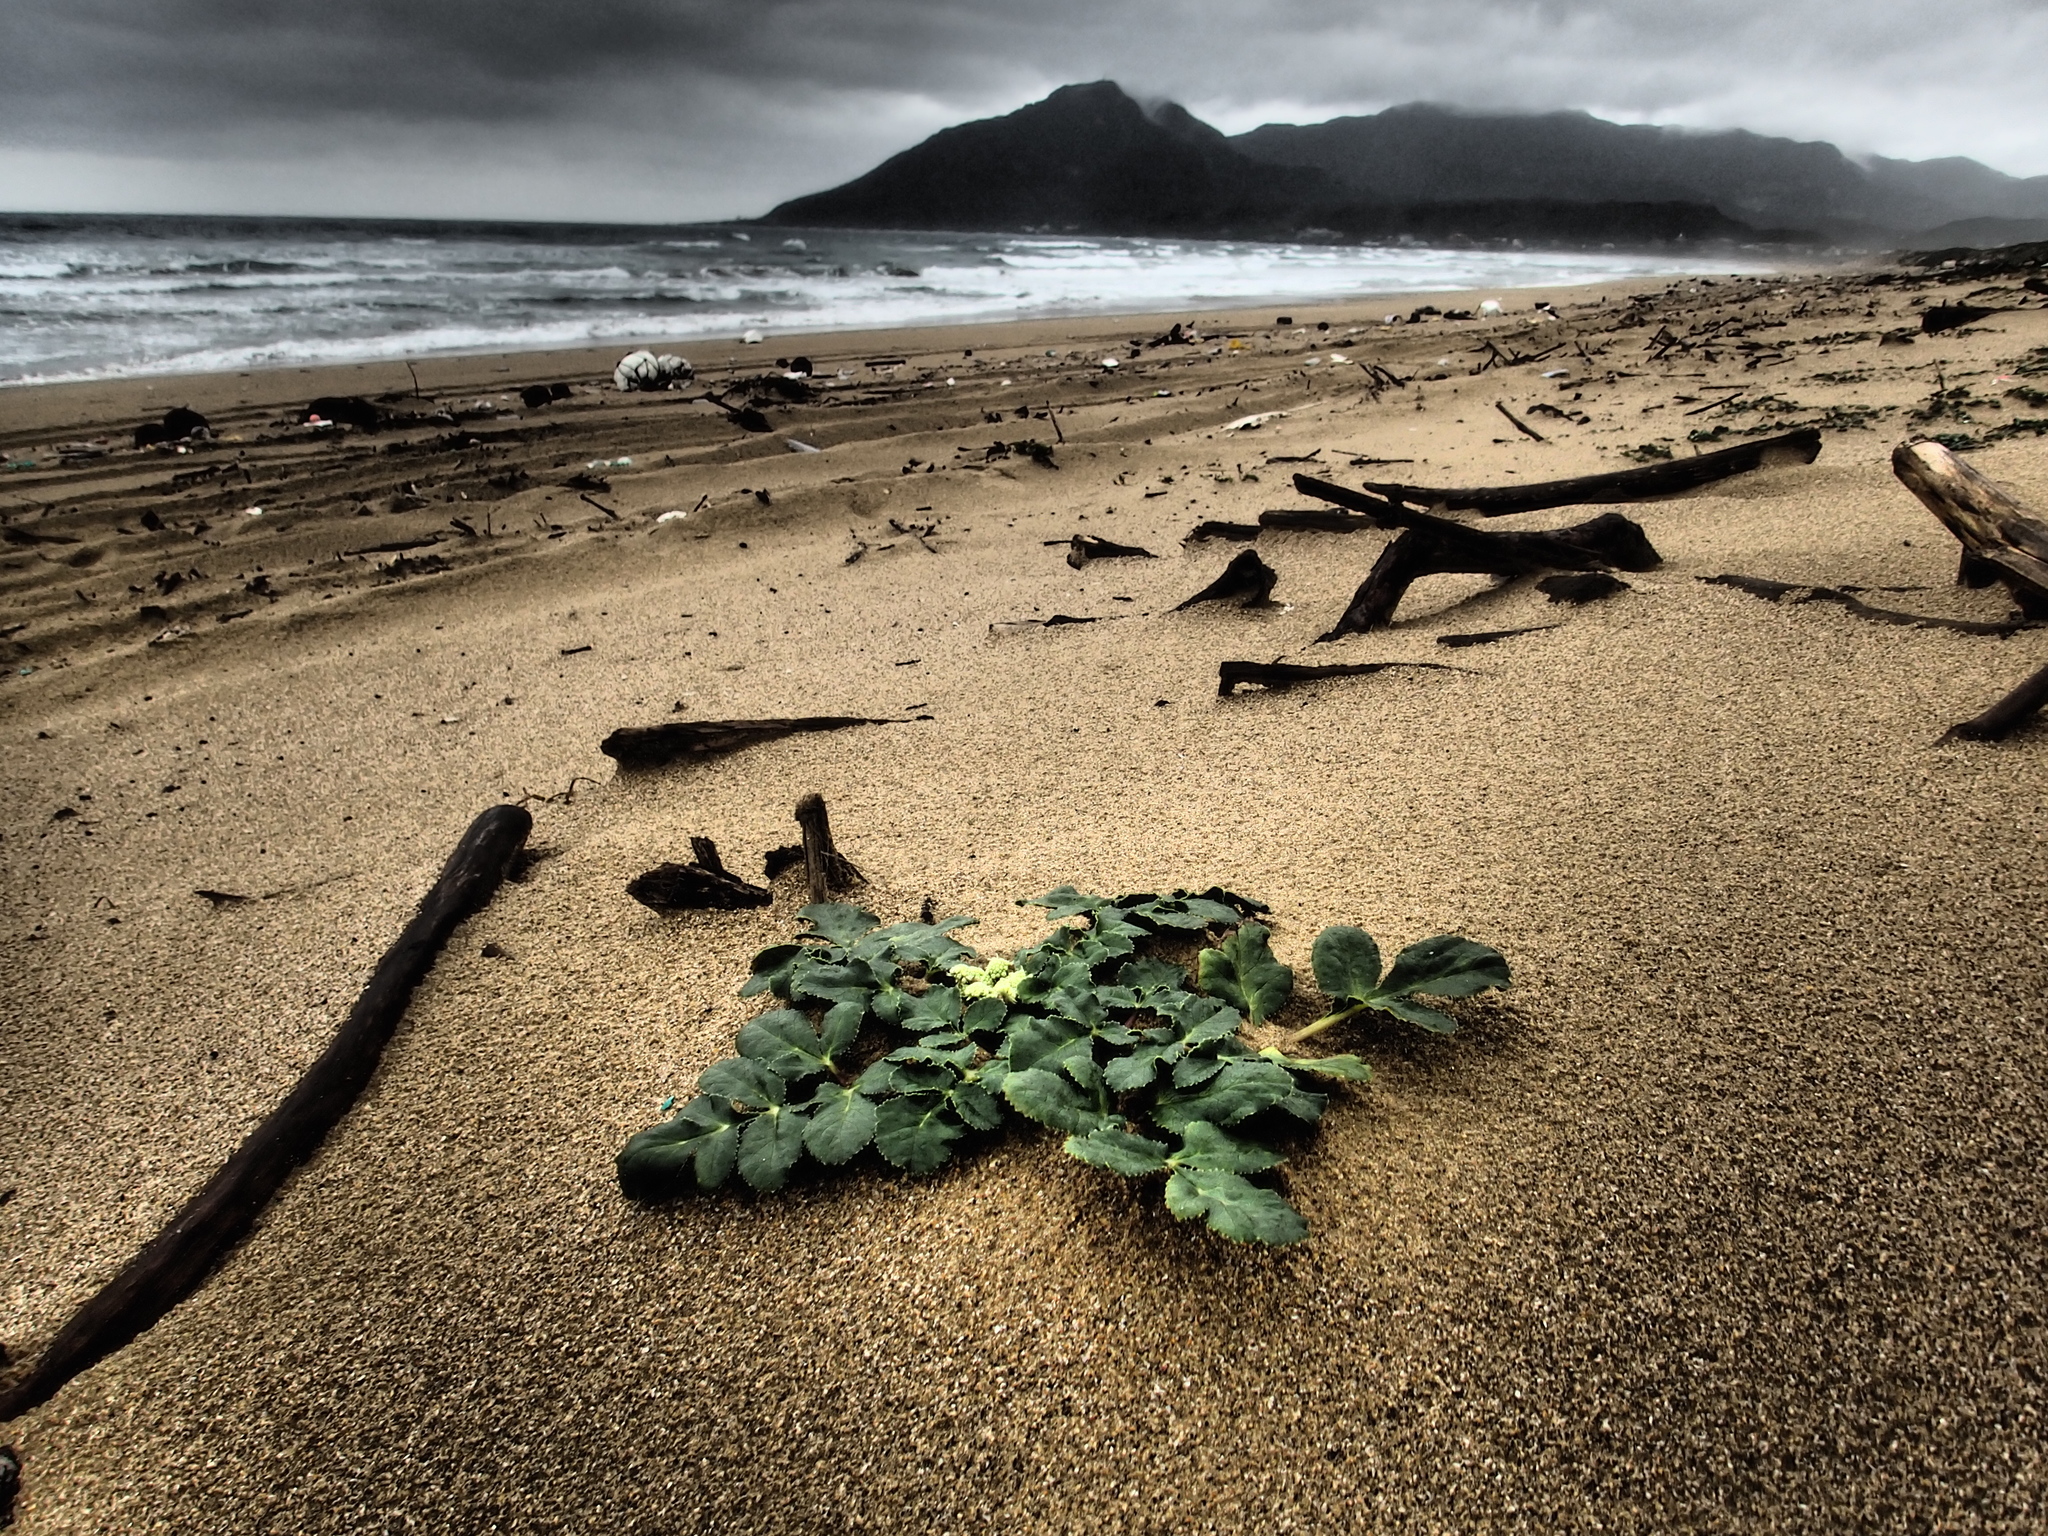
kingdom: Plantae
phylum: Tracheophyta
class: Magnoliopsida
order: Apiales
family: Apiaceae
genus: Glehnia
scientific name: Glehnia littoralis
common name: Beach silvertop
